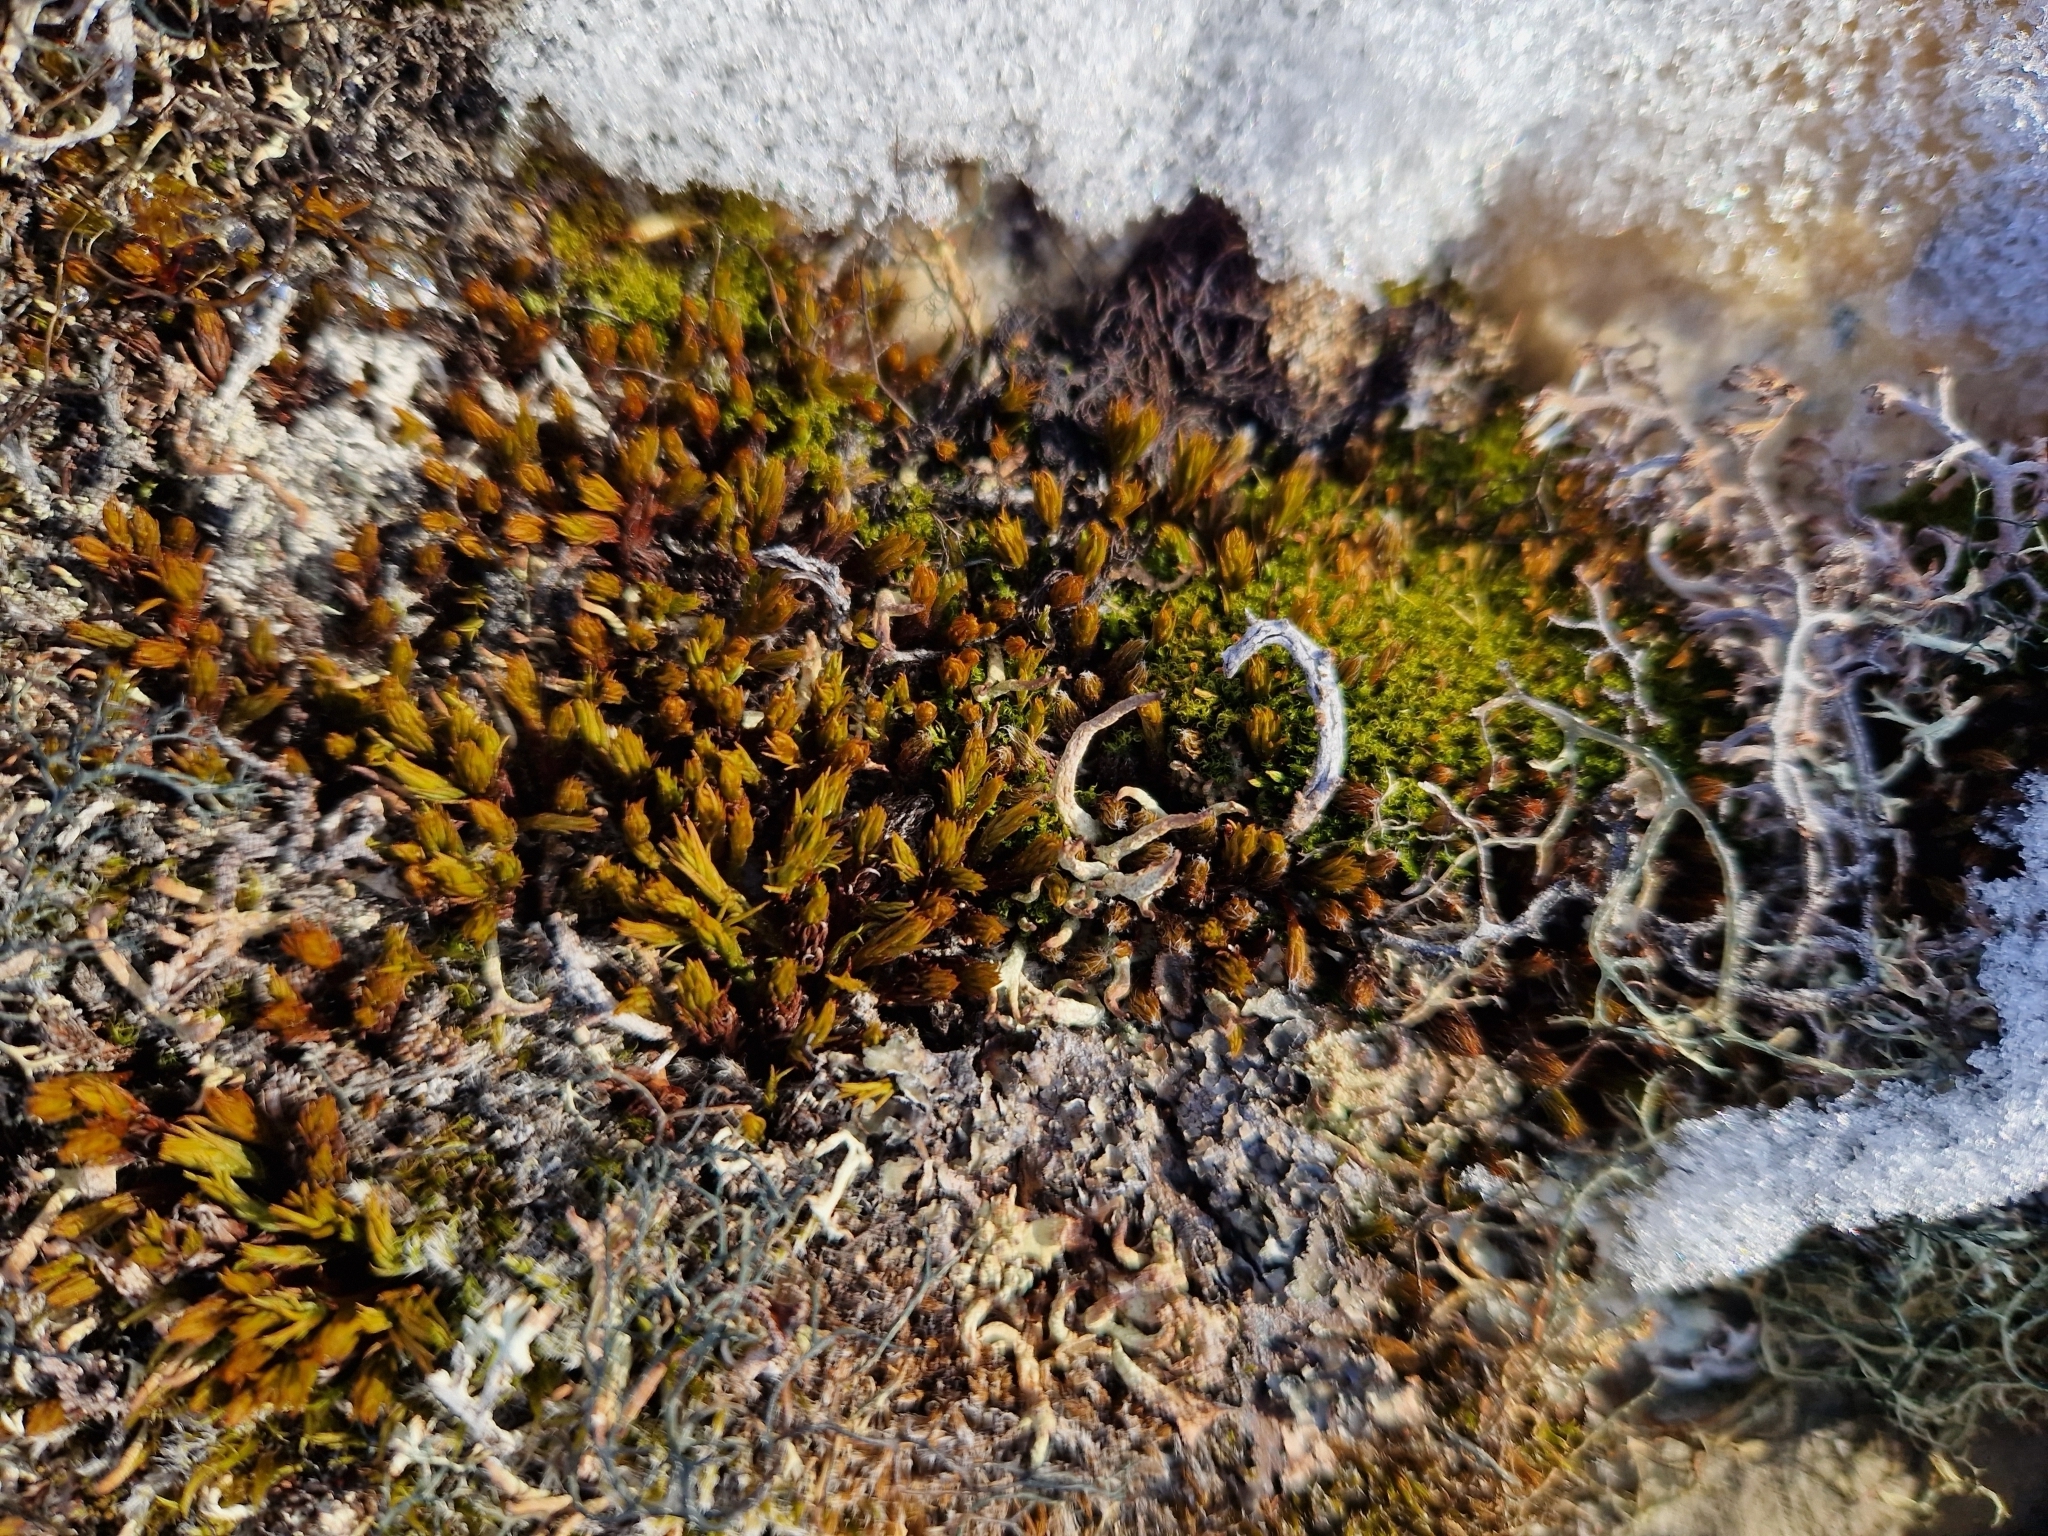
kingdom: Plantae
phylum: Bryophyta
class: Polytrichopsida
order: Polytrichales
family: Polytrichaceae
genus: Polytrichum
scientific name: Polytrichum juniperinum
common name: Juniper haircap moss
